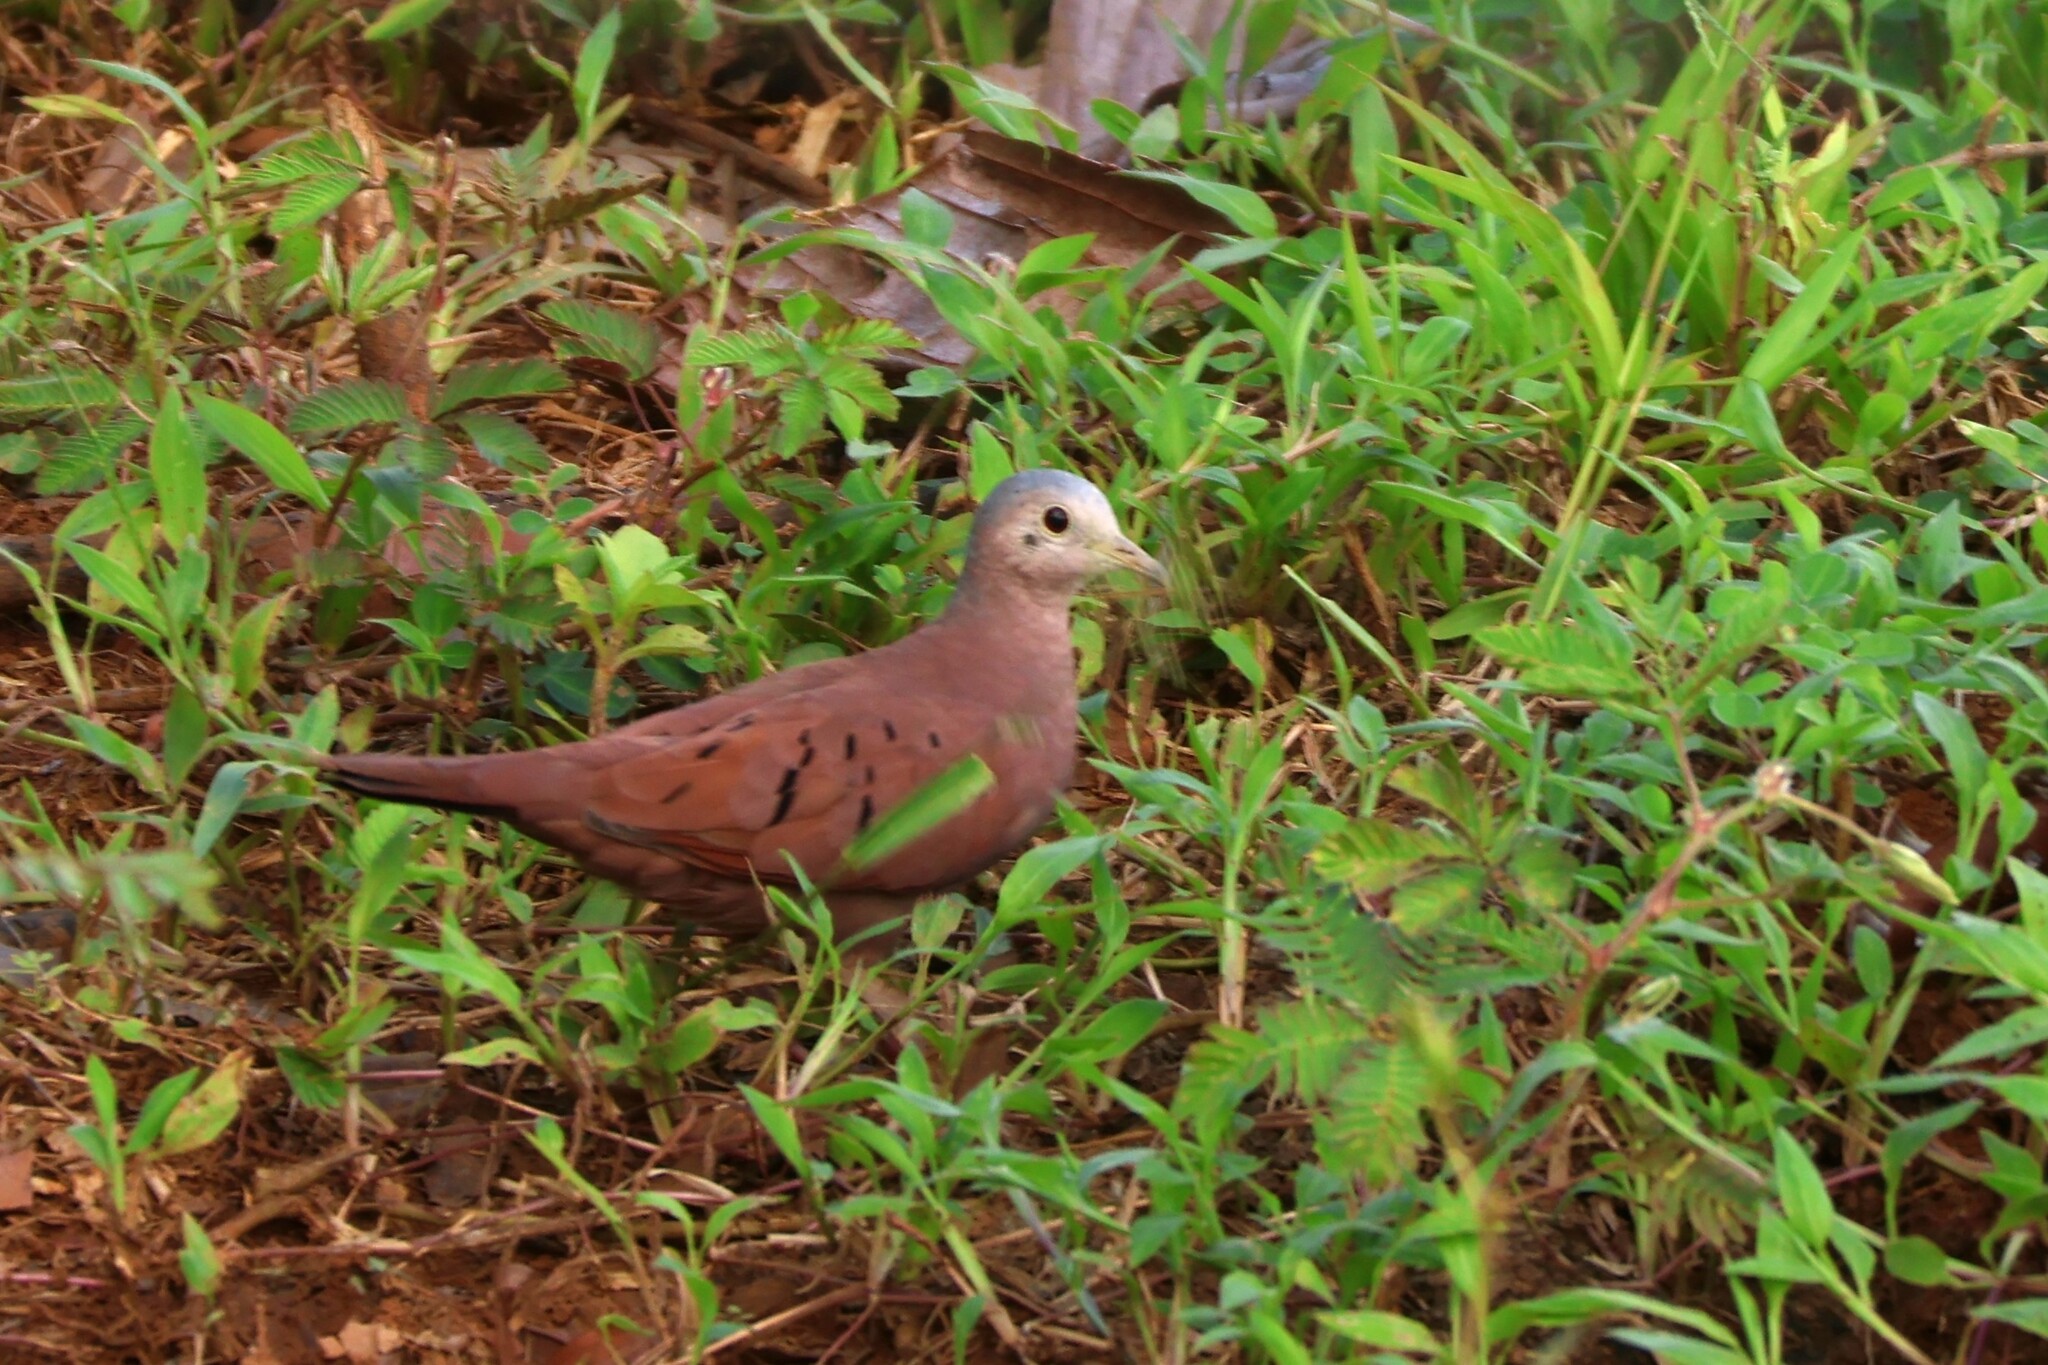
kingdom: Animalia
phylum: Chordata
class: Aves
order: Columbiformes
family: Columbidae
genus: Columbina
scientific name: Columbina talpacoti
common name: Ruddy ground dove
